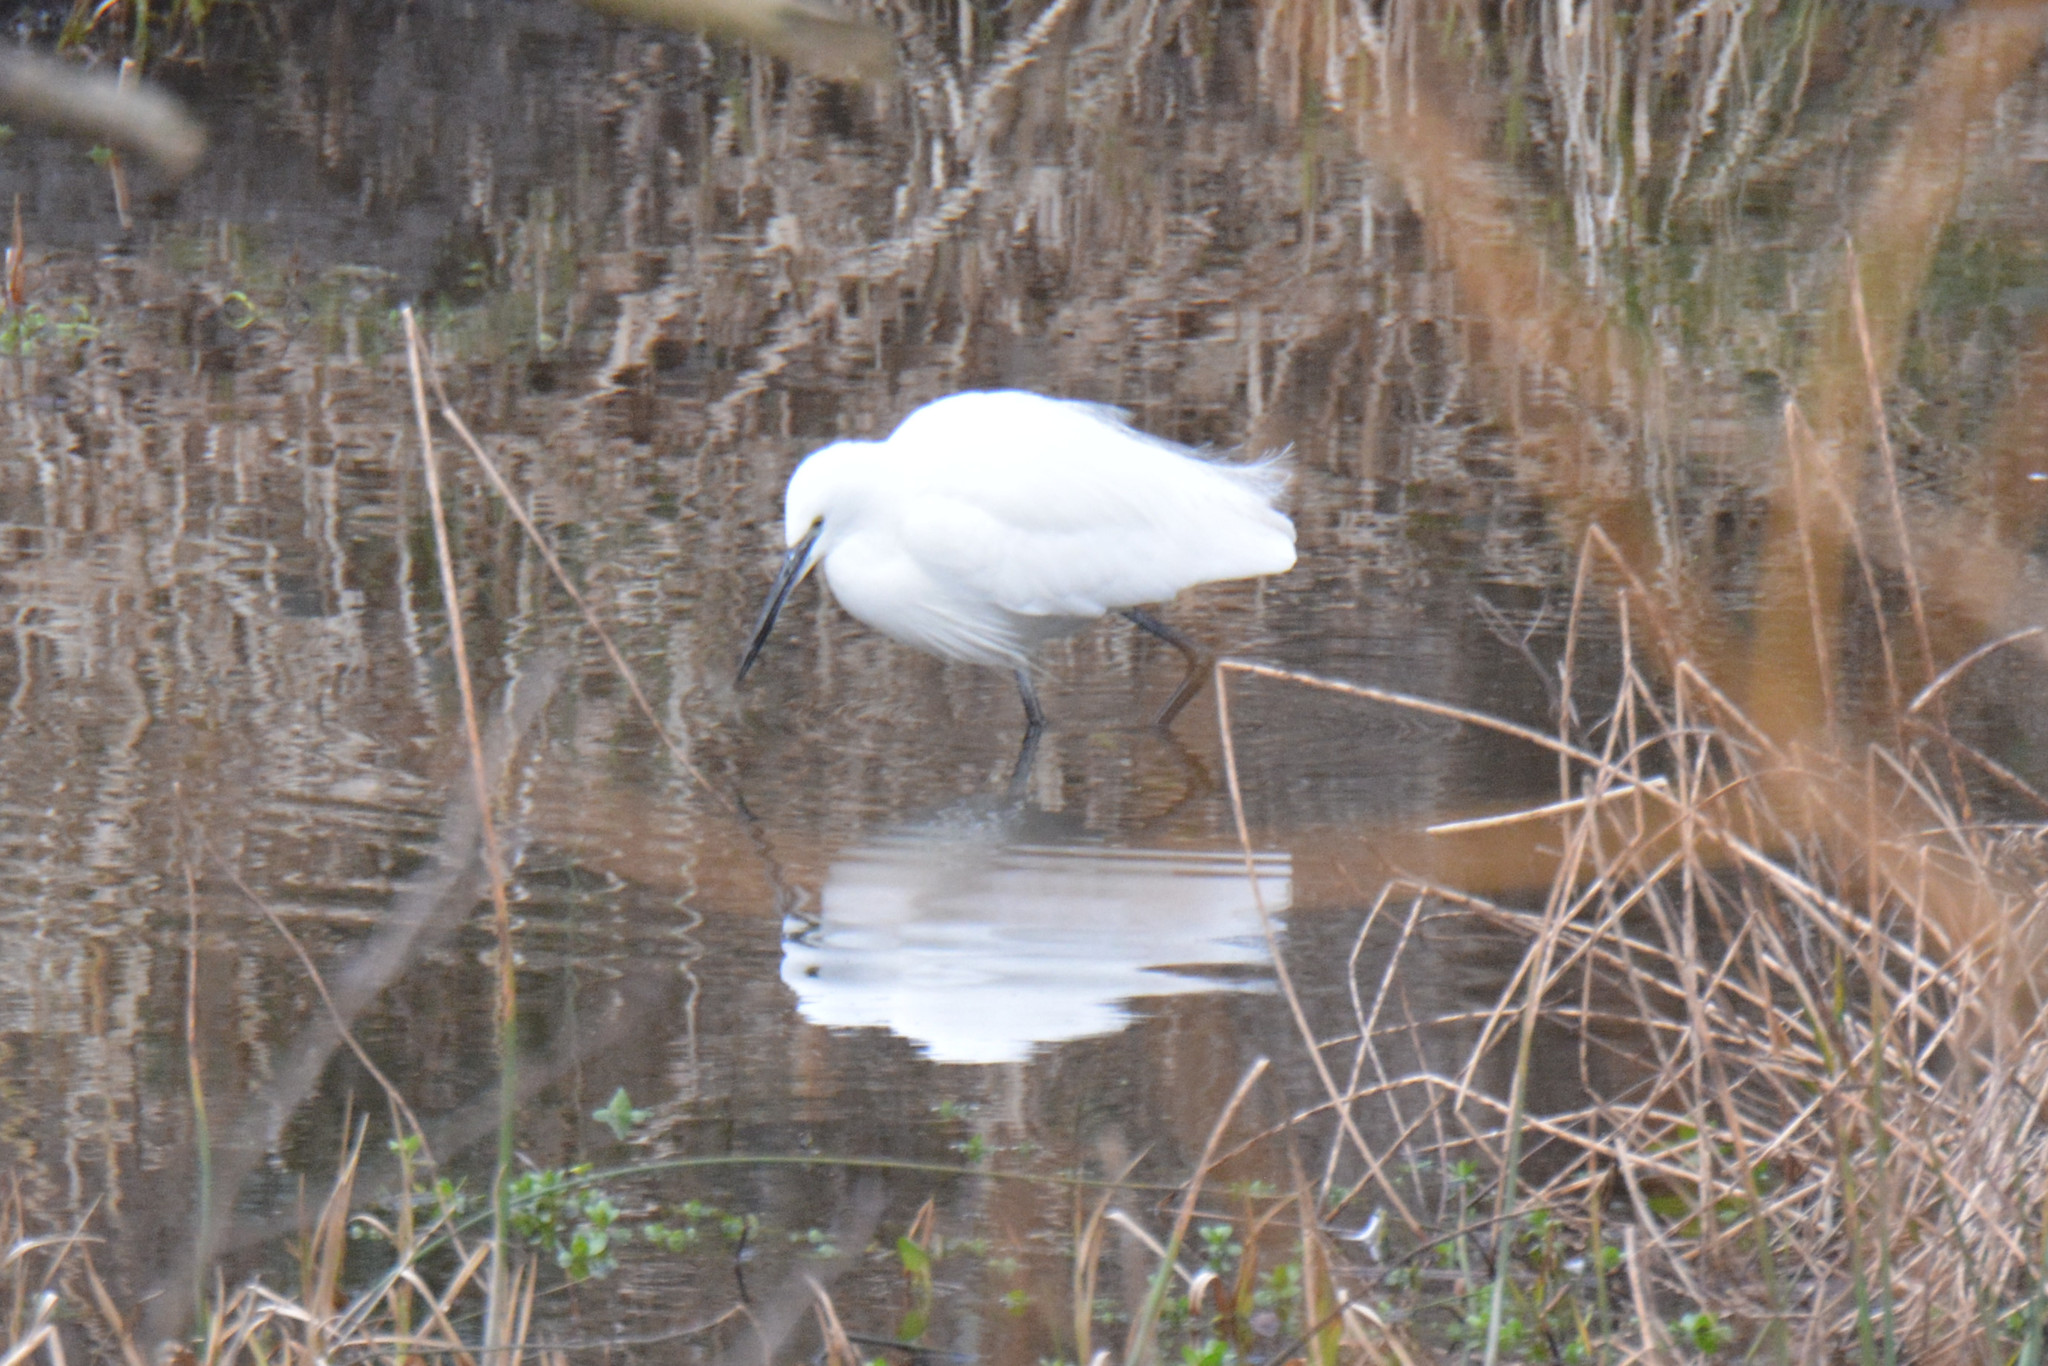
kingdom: Animalia
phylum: Chordata
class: Aves
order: Pelecaniformes
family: Ardeidae
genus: Egretta
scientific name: Egretta garzetta
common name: Little egret
